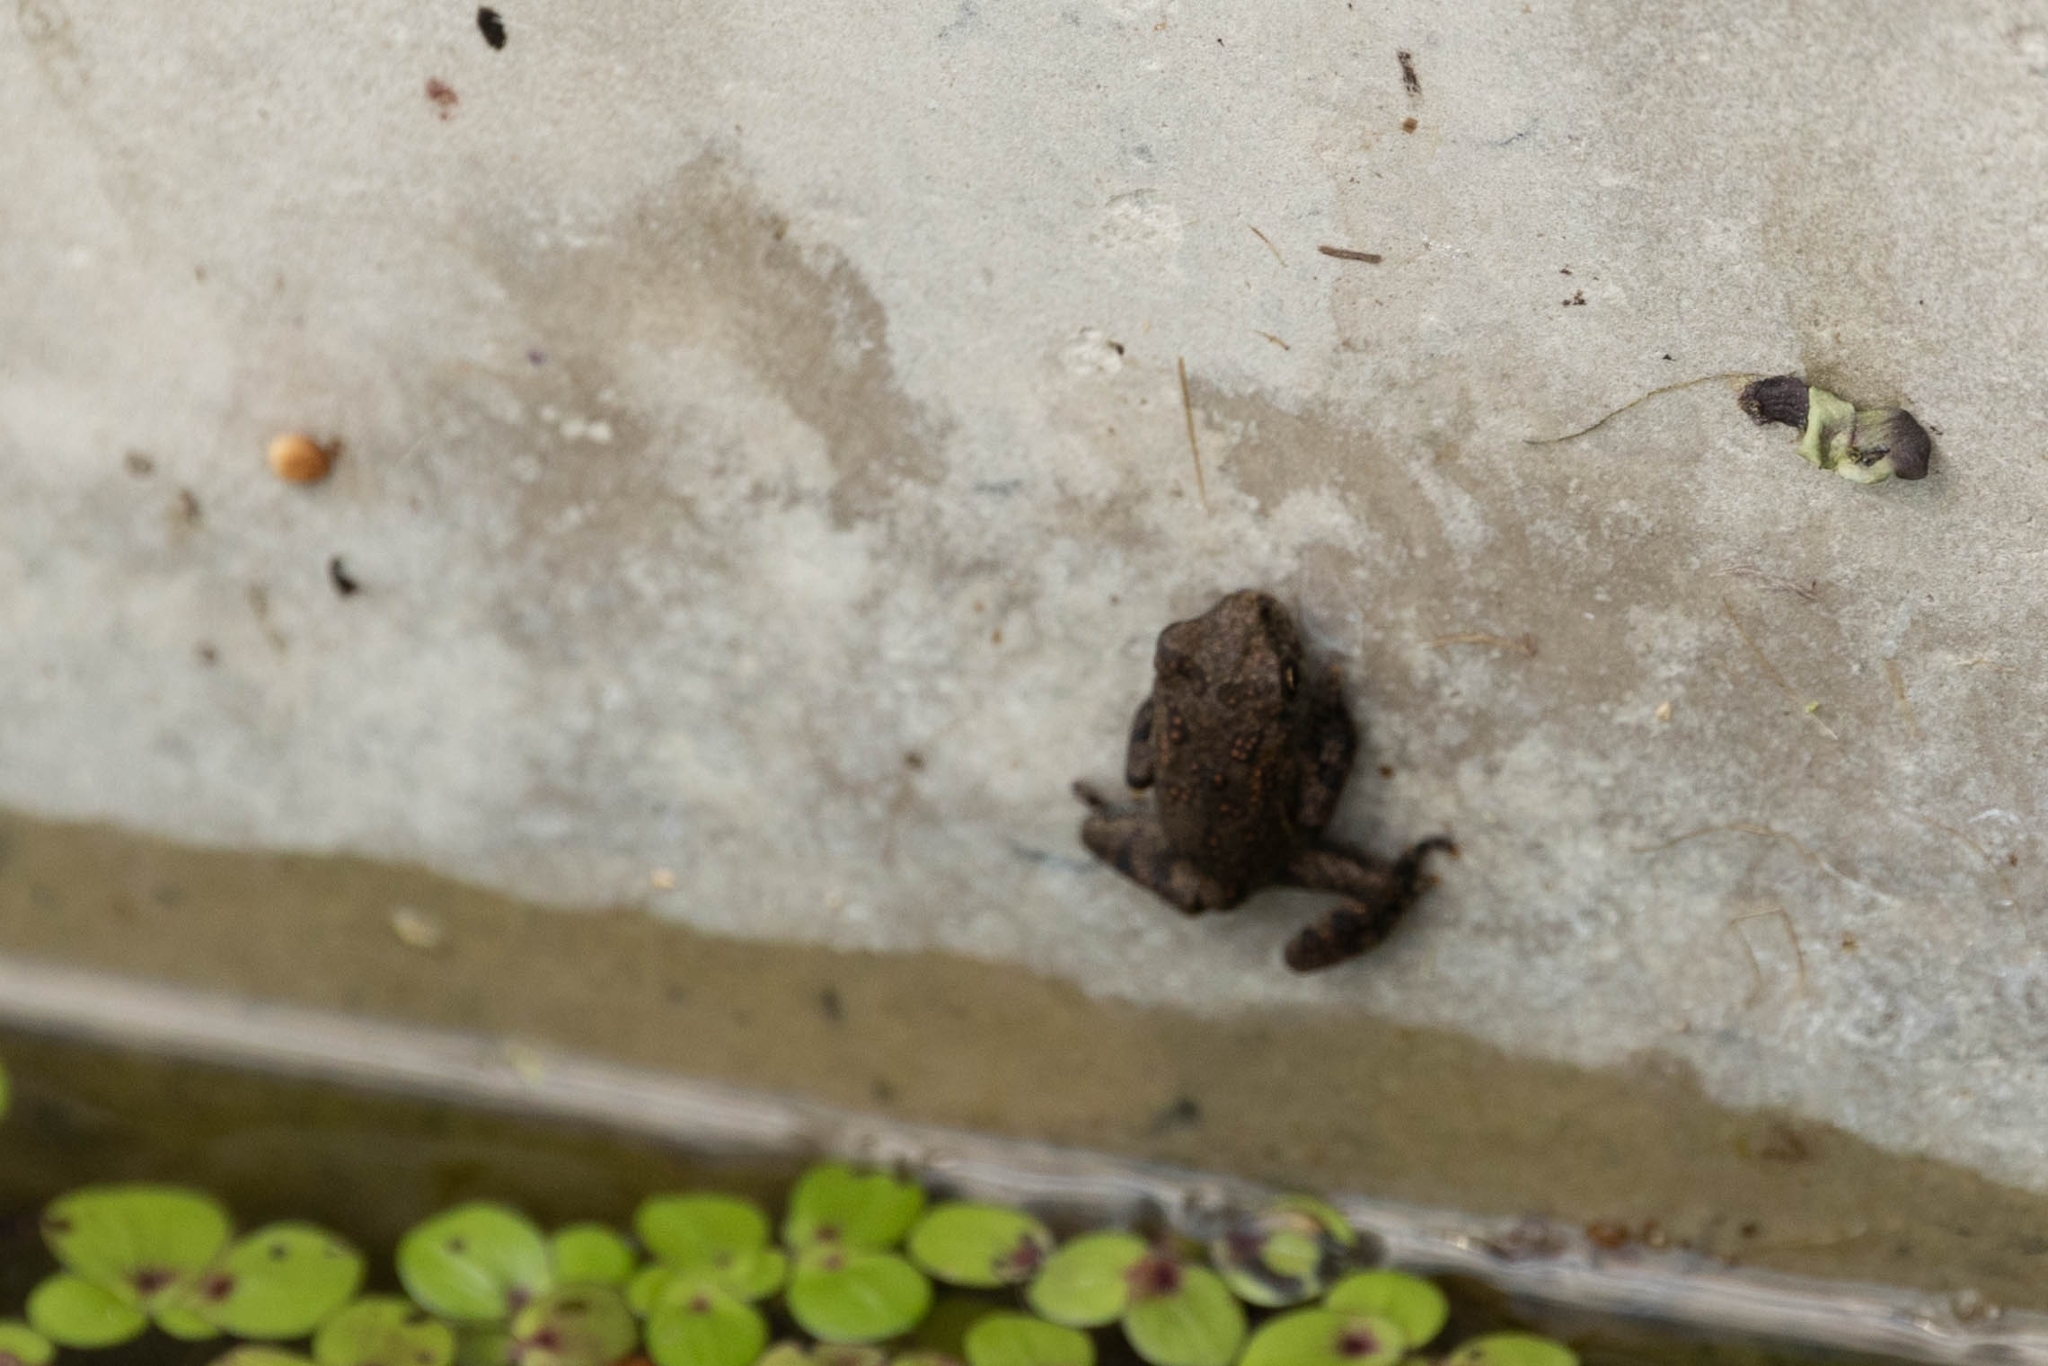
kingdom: Animalia
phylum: Chordata
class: Amphibia
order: Anura
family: Bufonidae
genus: Anaxyrus
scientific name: Anaxyrus americanus
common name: American toad
